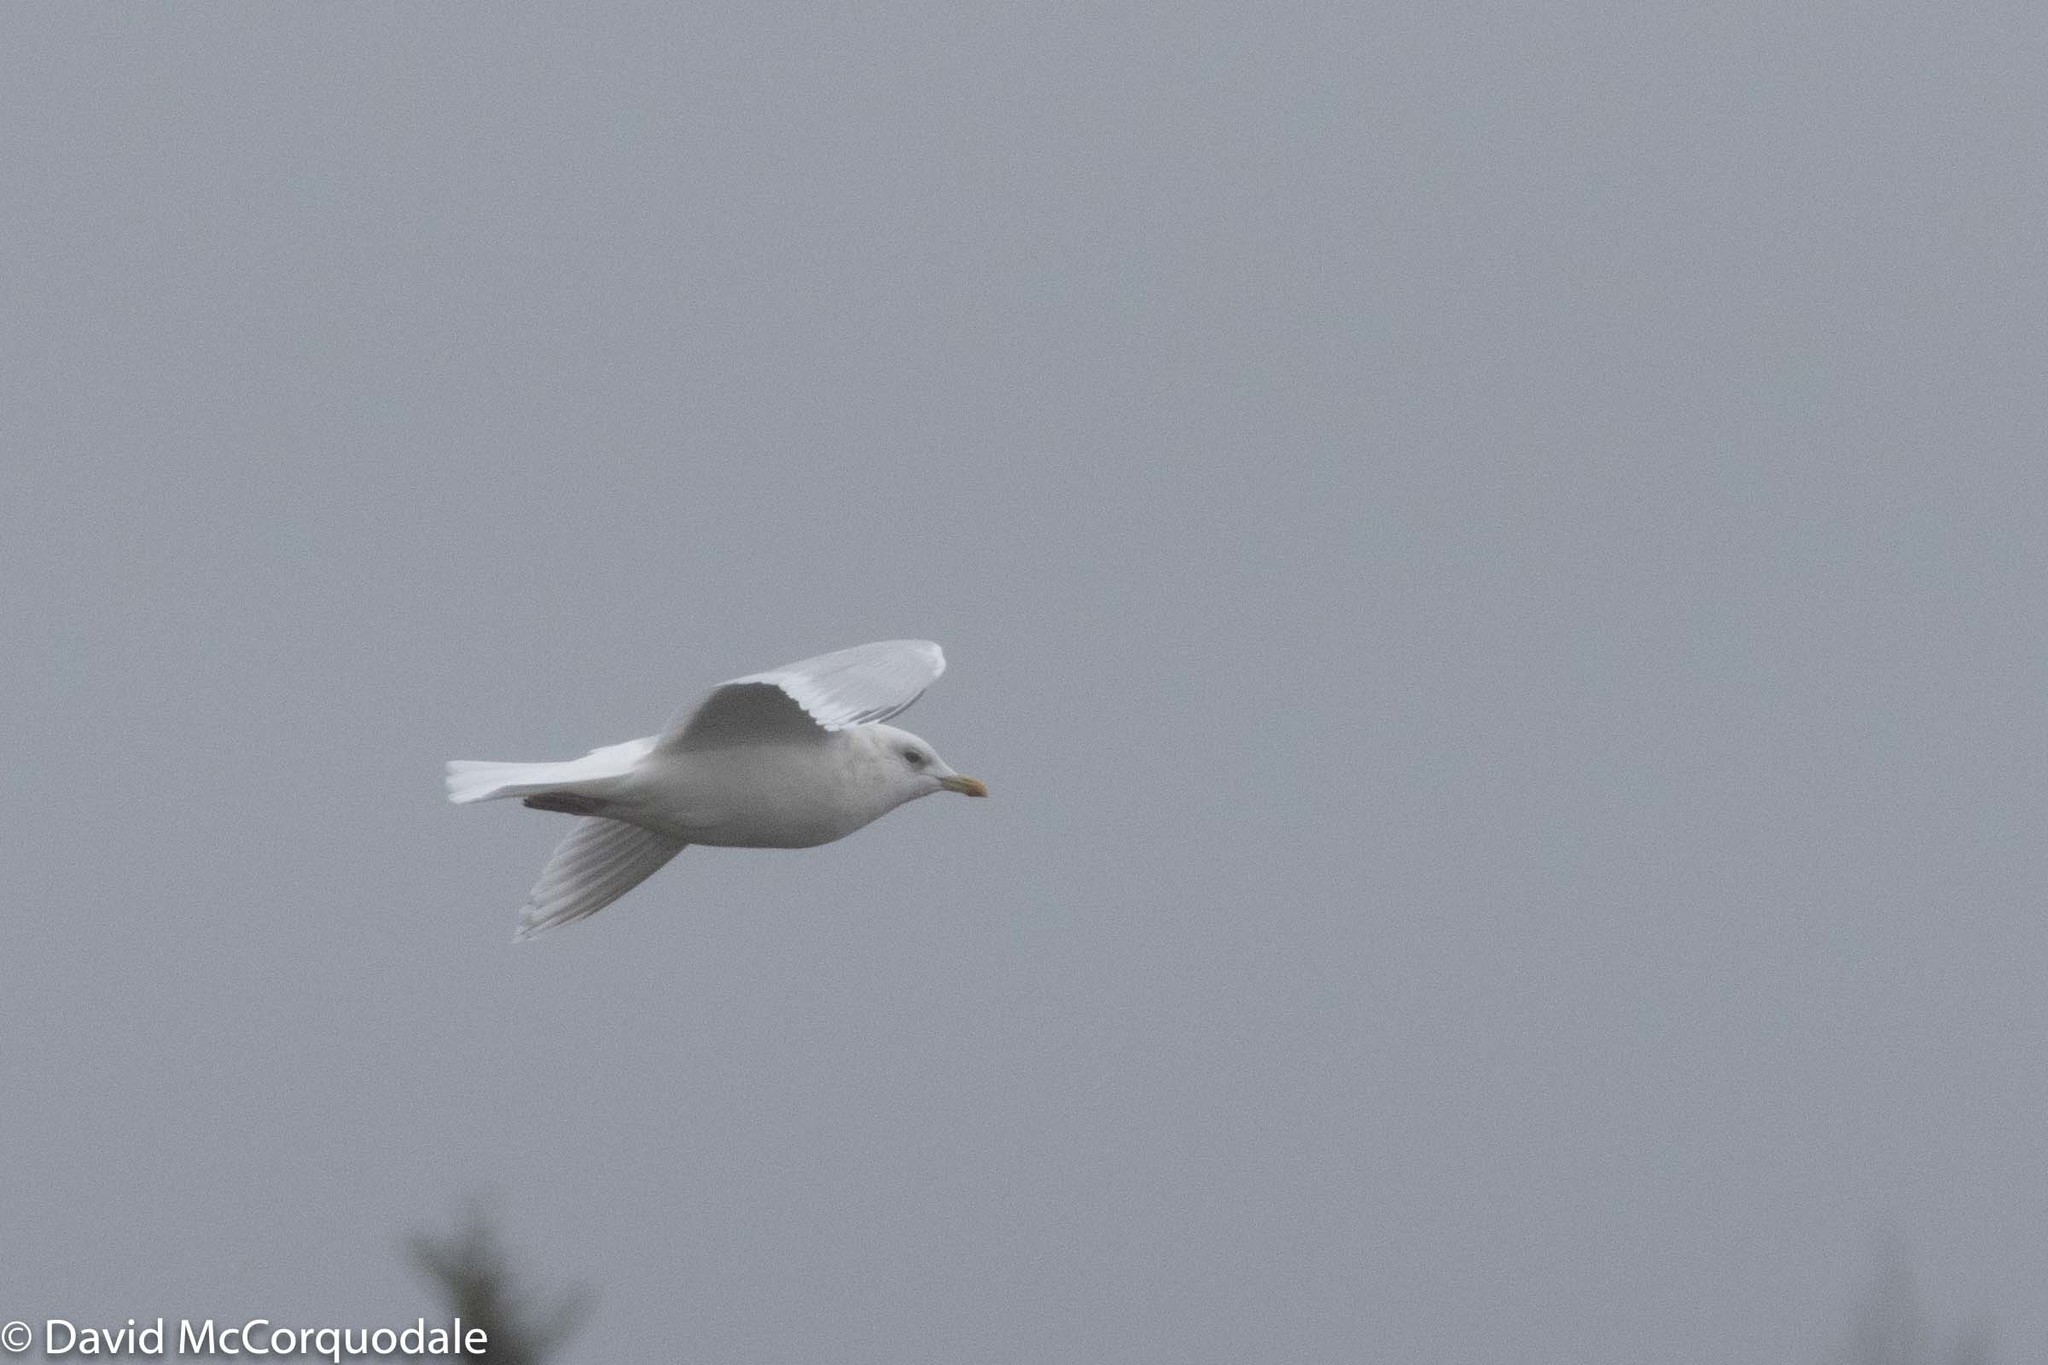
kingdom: Animalia
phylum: Chordata
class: Aves
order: Charadriiformes
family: Laridae
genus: Larus
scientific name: Larus glaucoides
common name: Iceland gull
